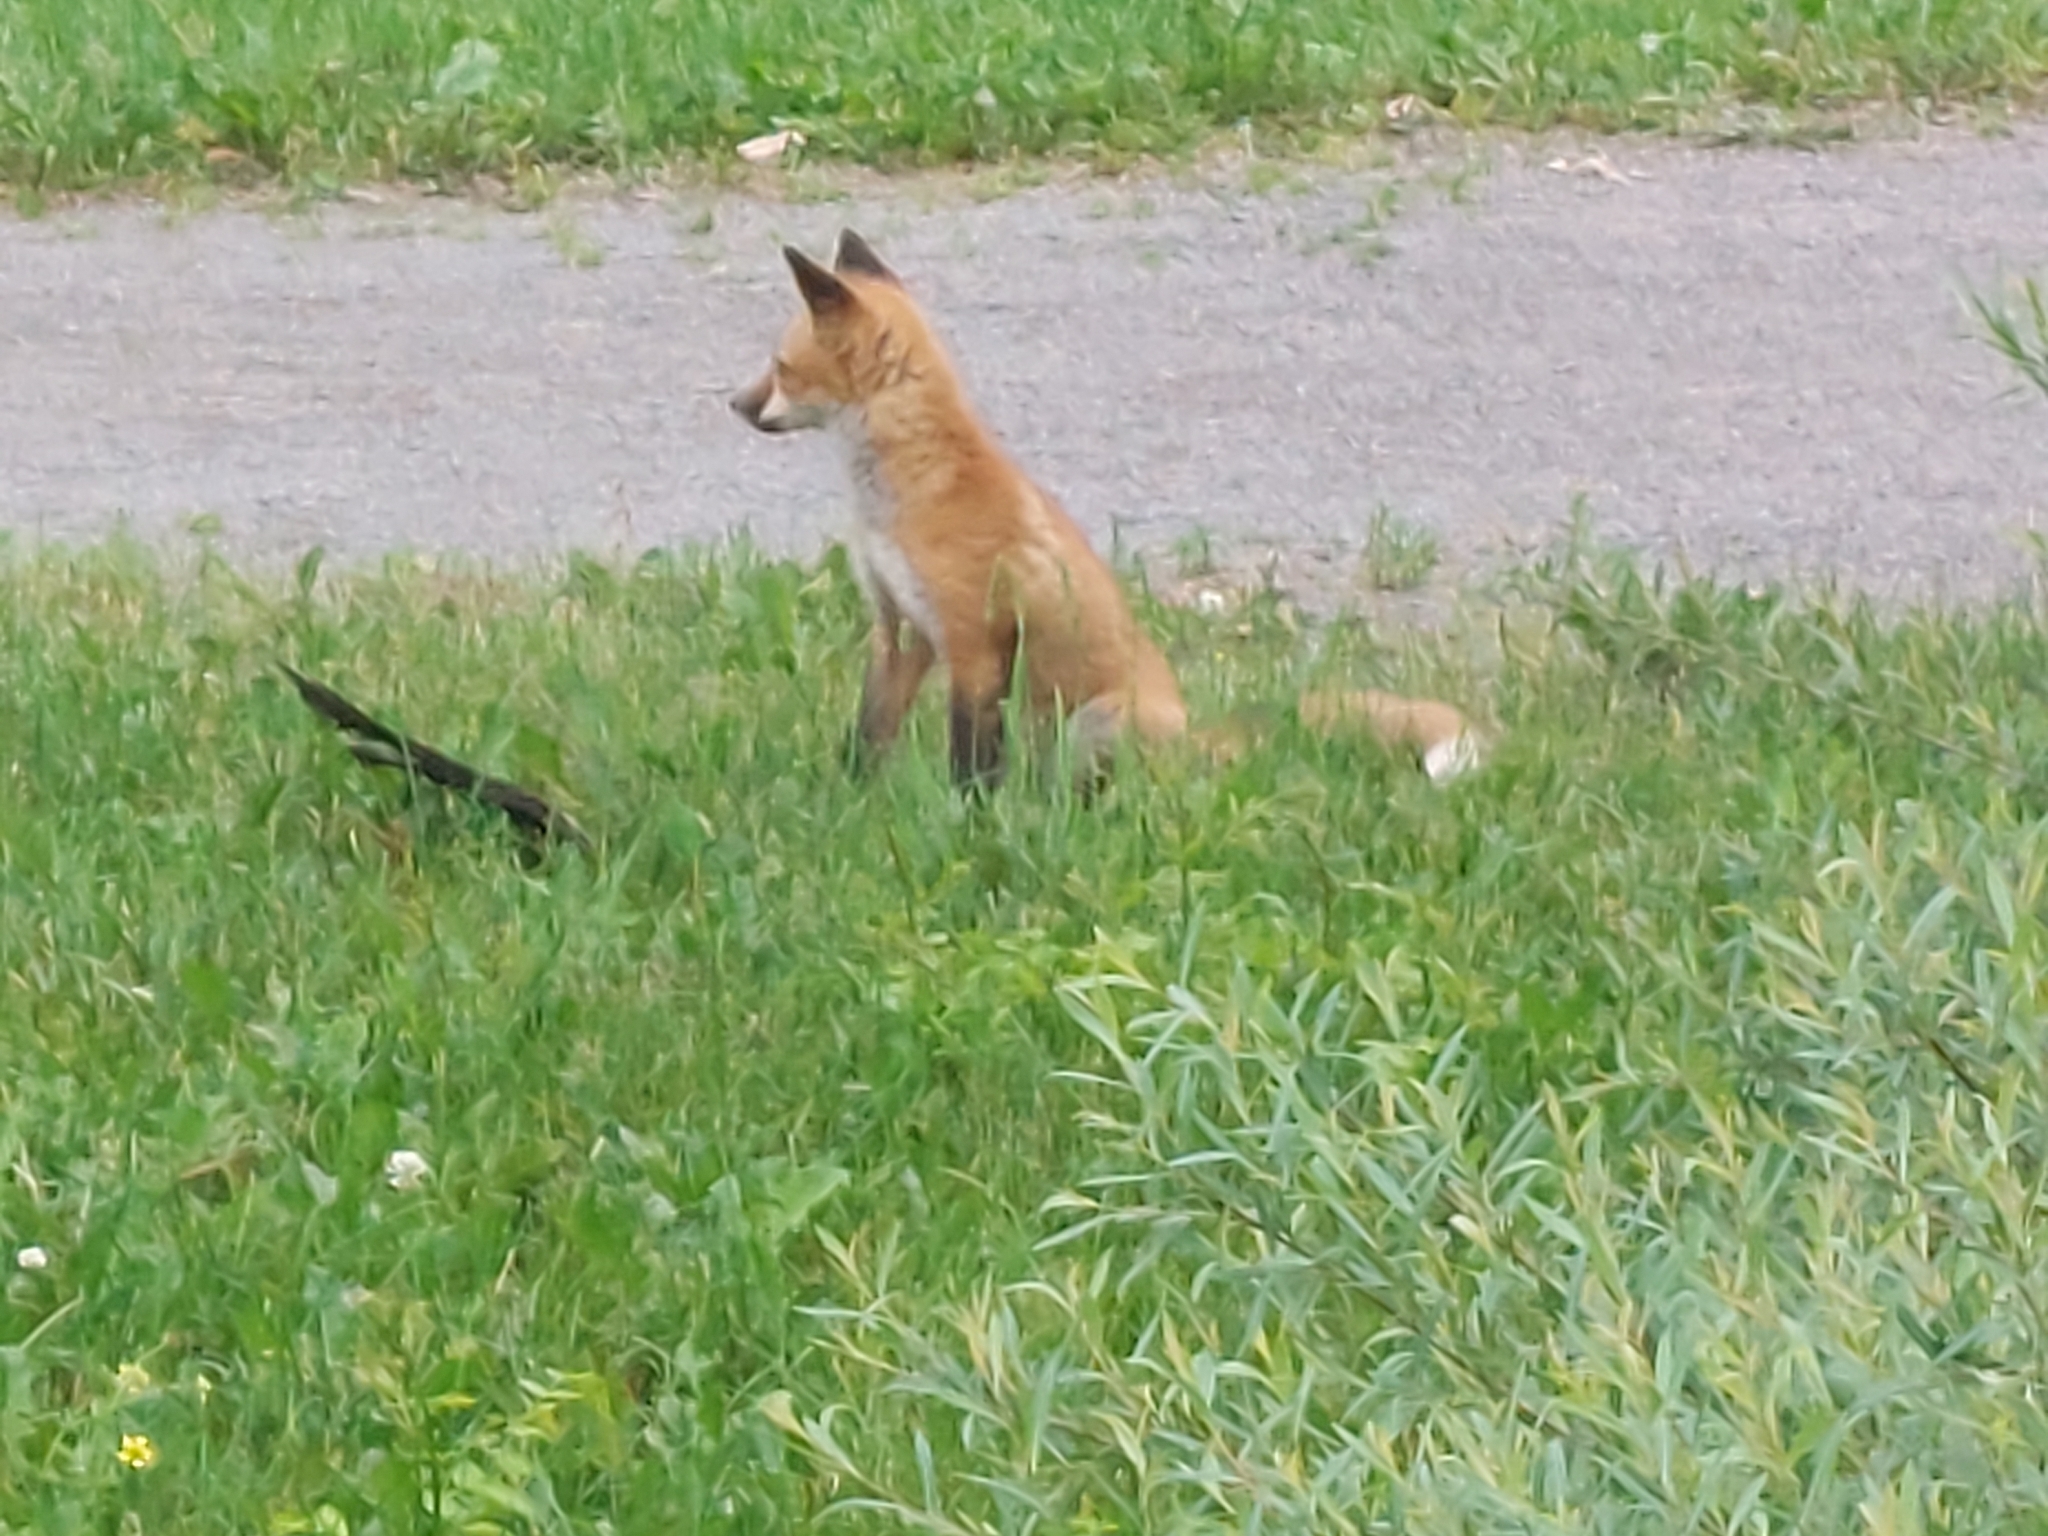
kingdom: Animalia
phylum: Chordata
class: Mammalia
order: Carnivora
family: Canidae
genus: Vulpes
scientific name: Vulpes vulpes
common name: Red fox
